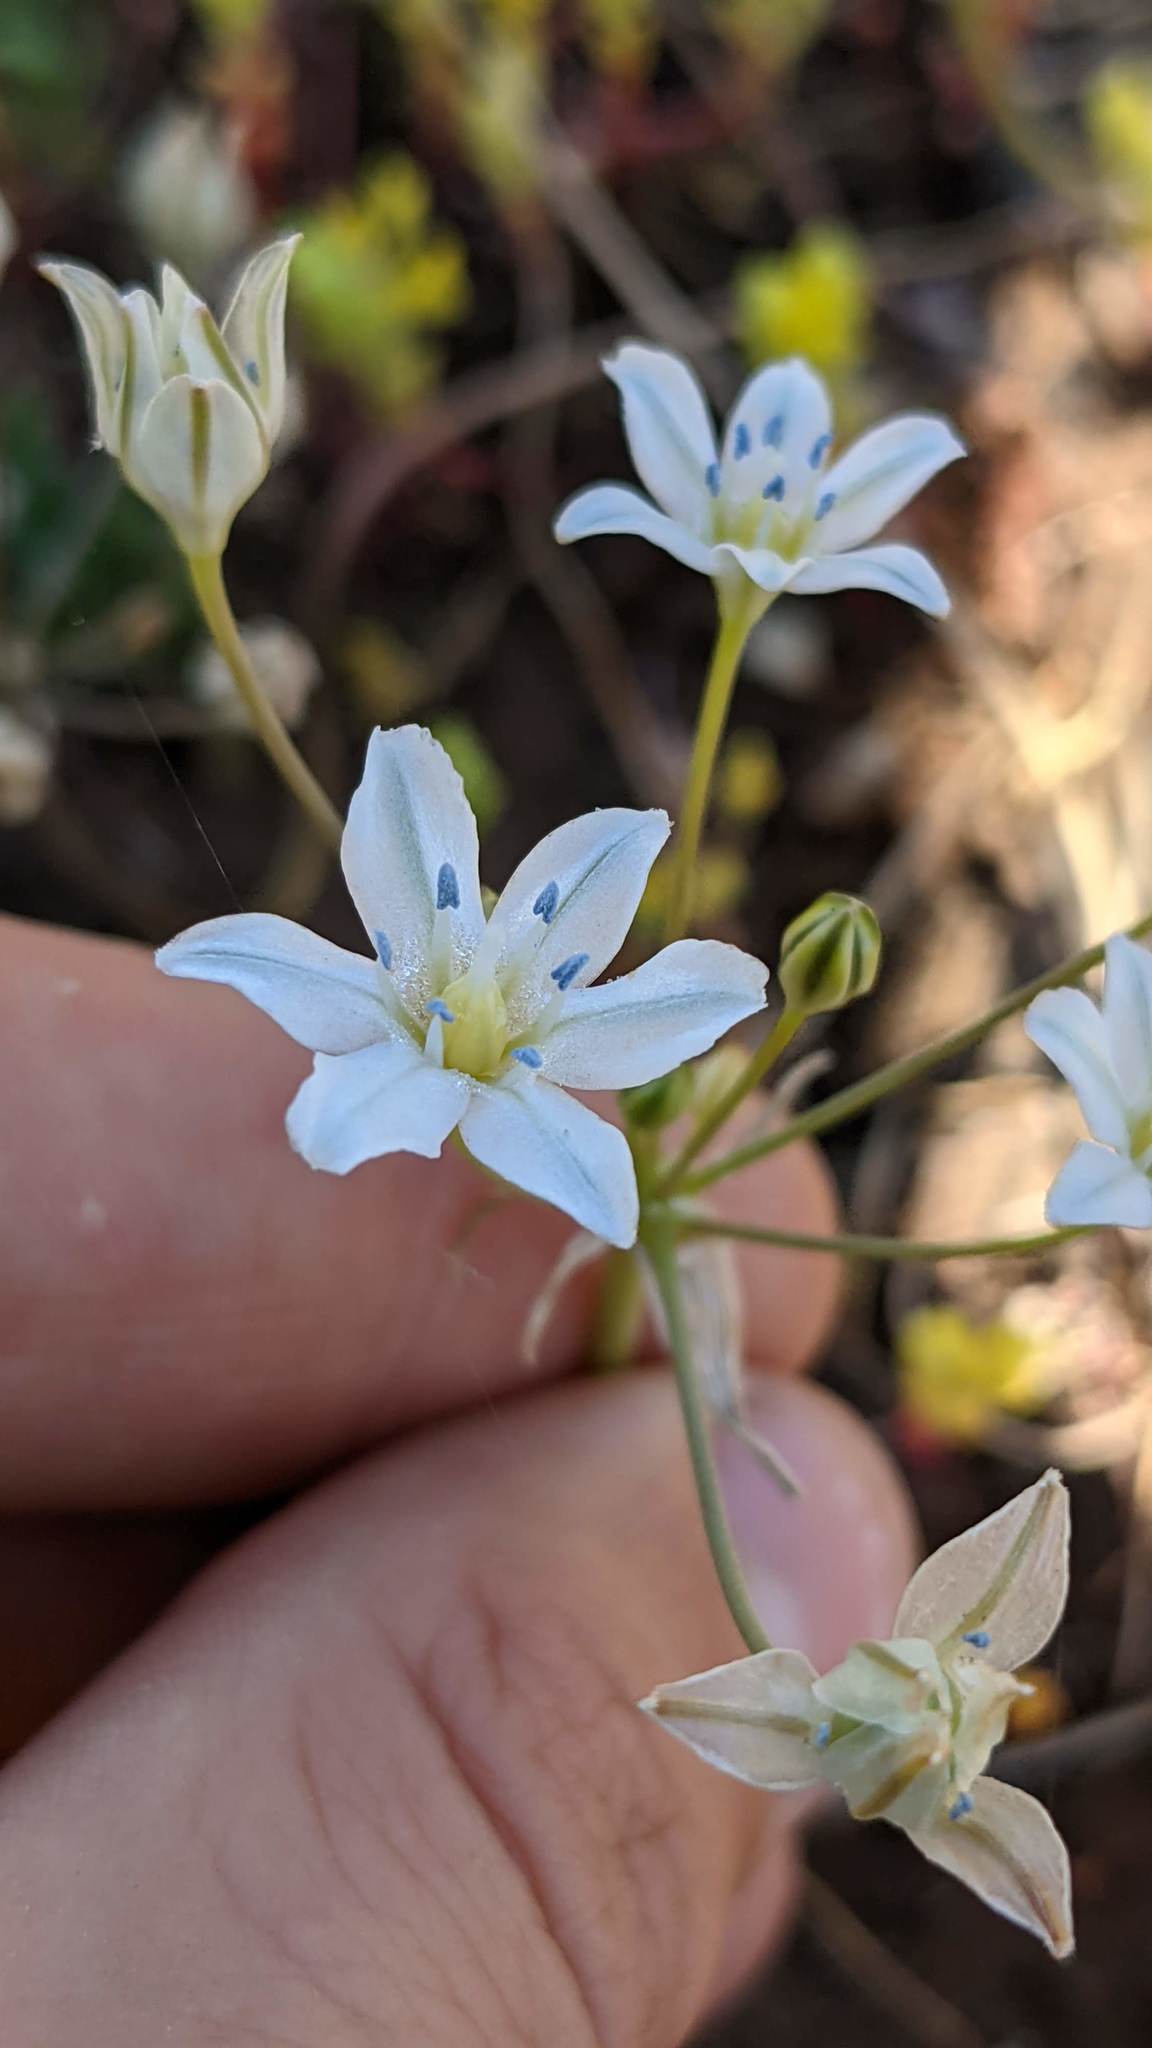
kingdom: Plantae
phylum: Tracheophyta
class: Liliopsida
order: Asparagales
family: Asparagaceae
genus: Triteleia
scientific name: Triteleia lilacina
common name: Lilac-flower wild hyacinth
